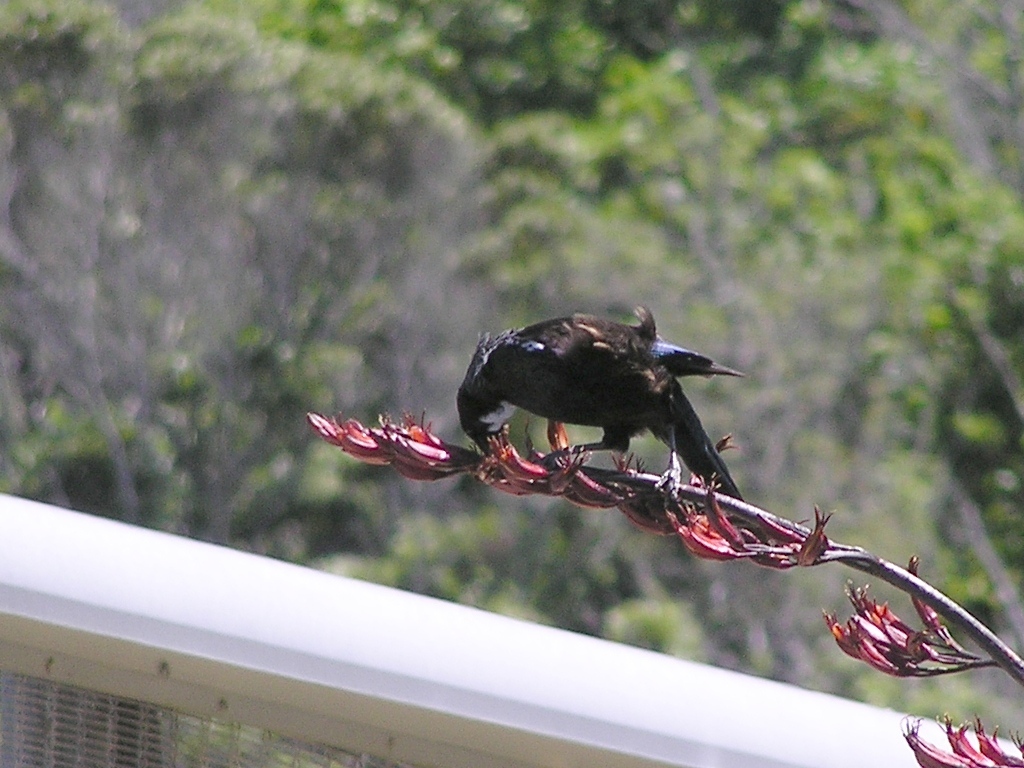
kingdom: Animalia
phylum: Chordata
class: Aves
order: Passeriformes
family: Meliphagidae
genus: Prosthemadera
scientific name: Prosthemadera novaeseelandiae
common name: Tui
